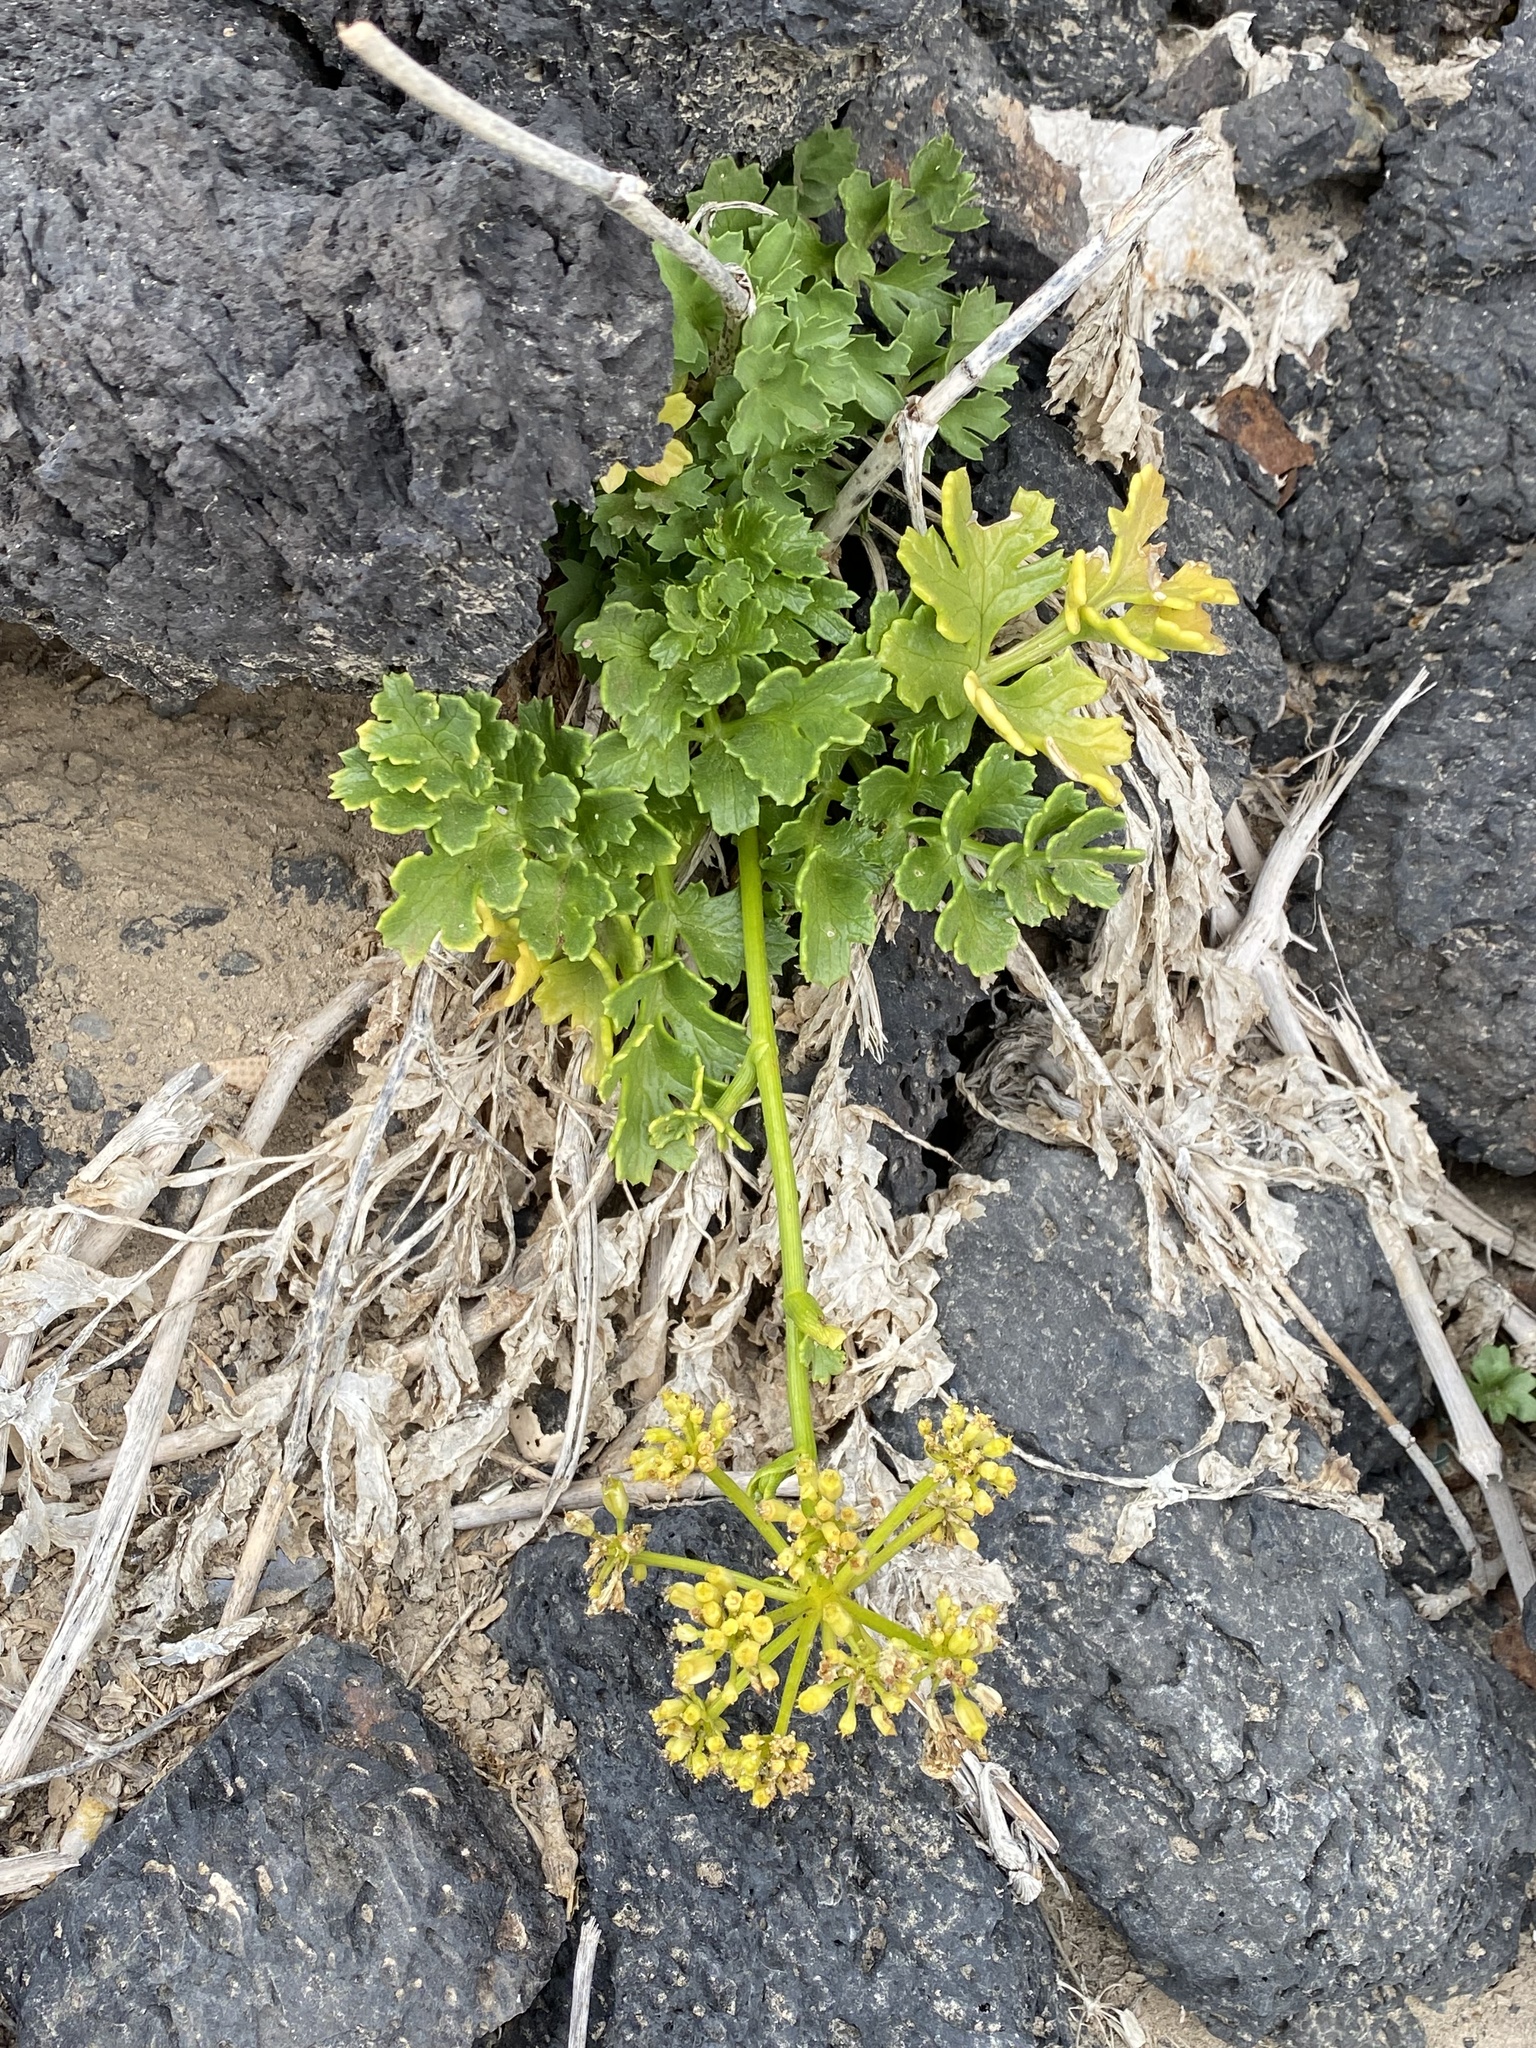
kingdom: Plantae
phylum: Tracheophyta
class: Magnoliopsida
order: Apiales
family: Apiaceae
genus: Astydamia
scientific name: Astydamia latifolia
